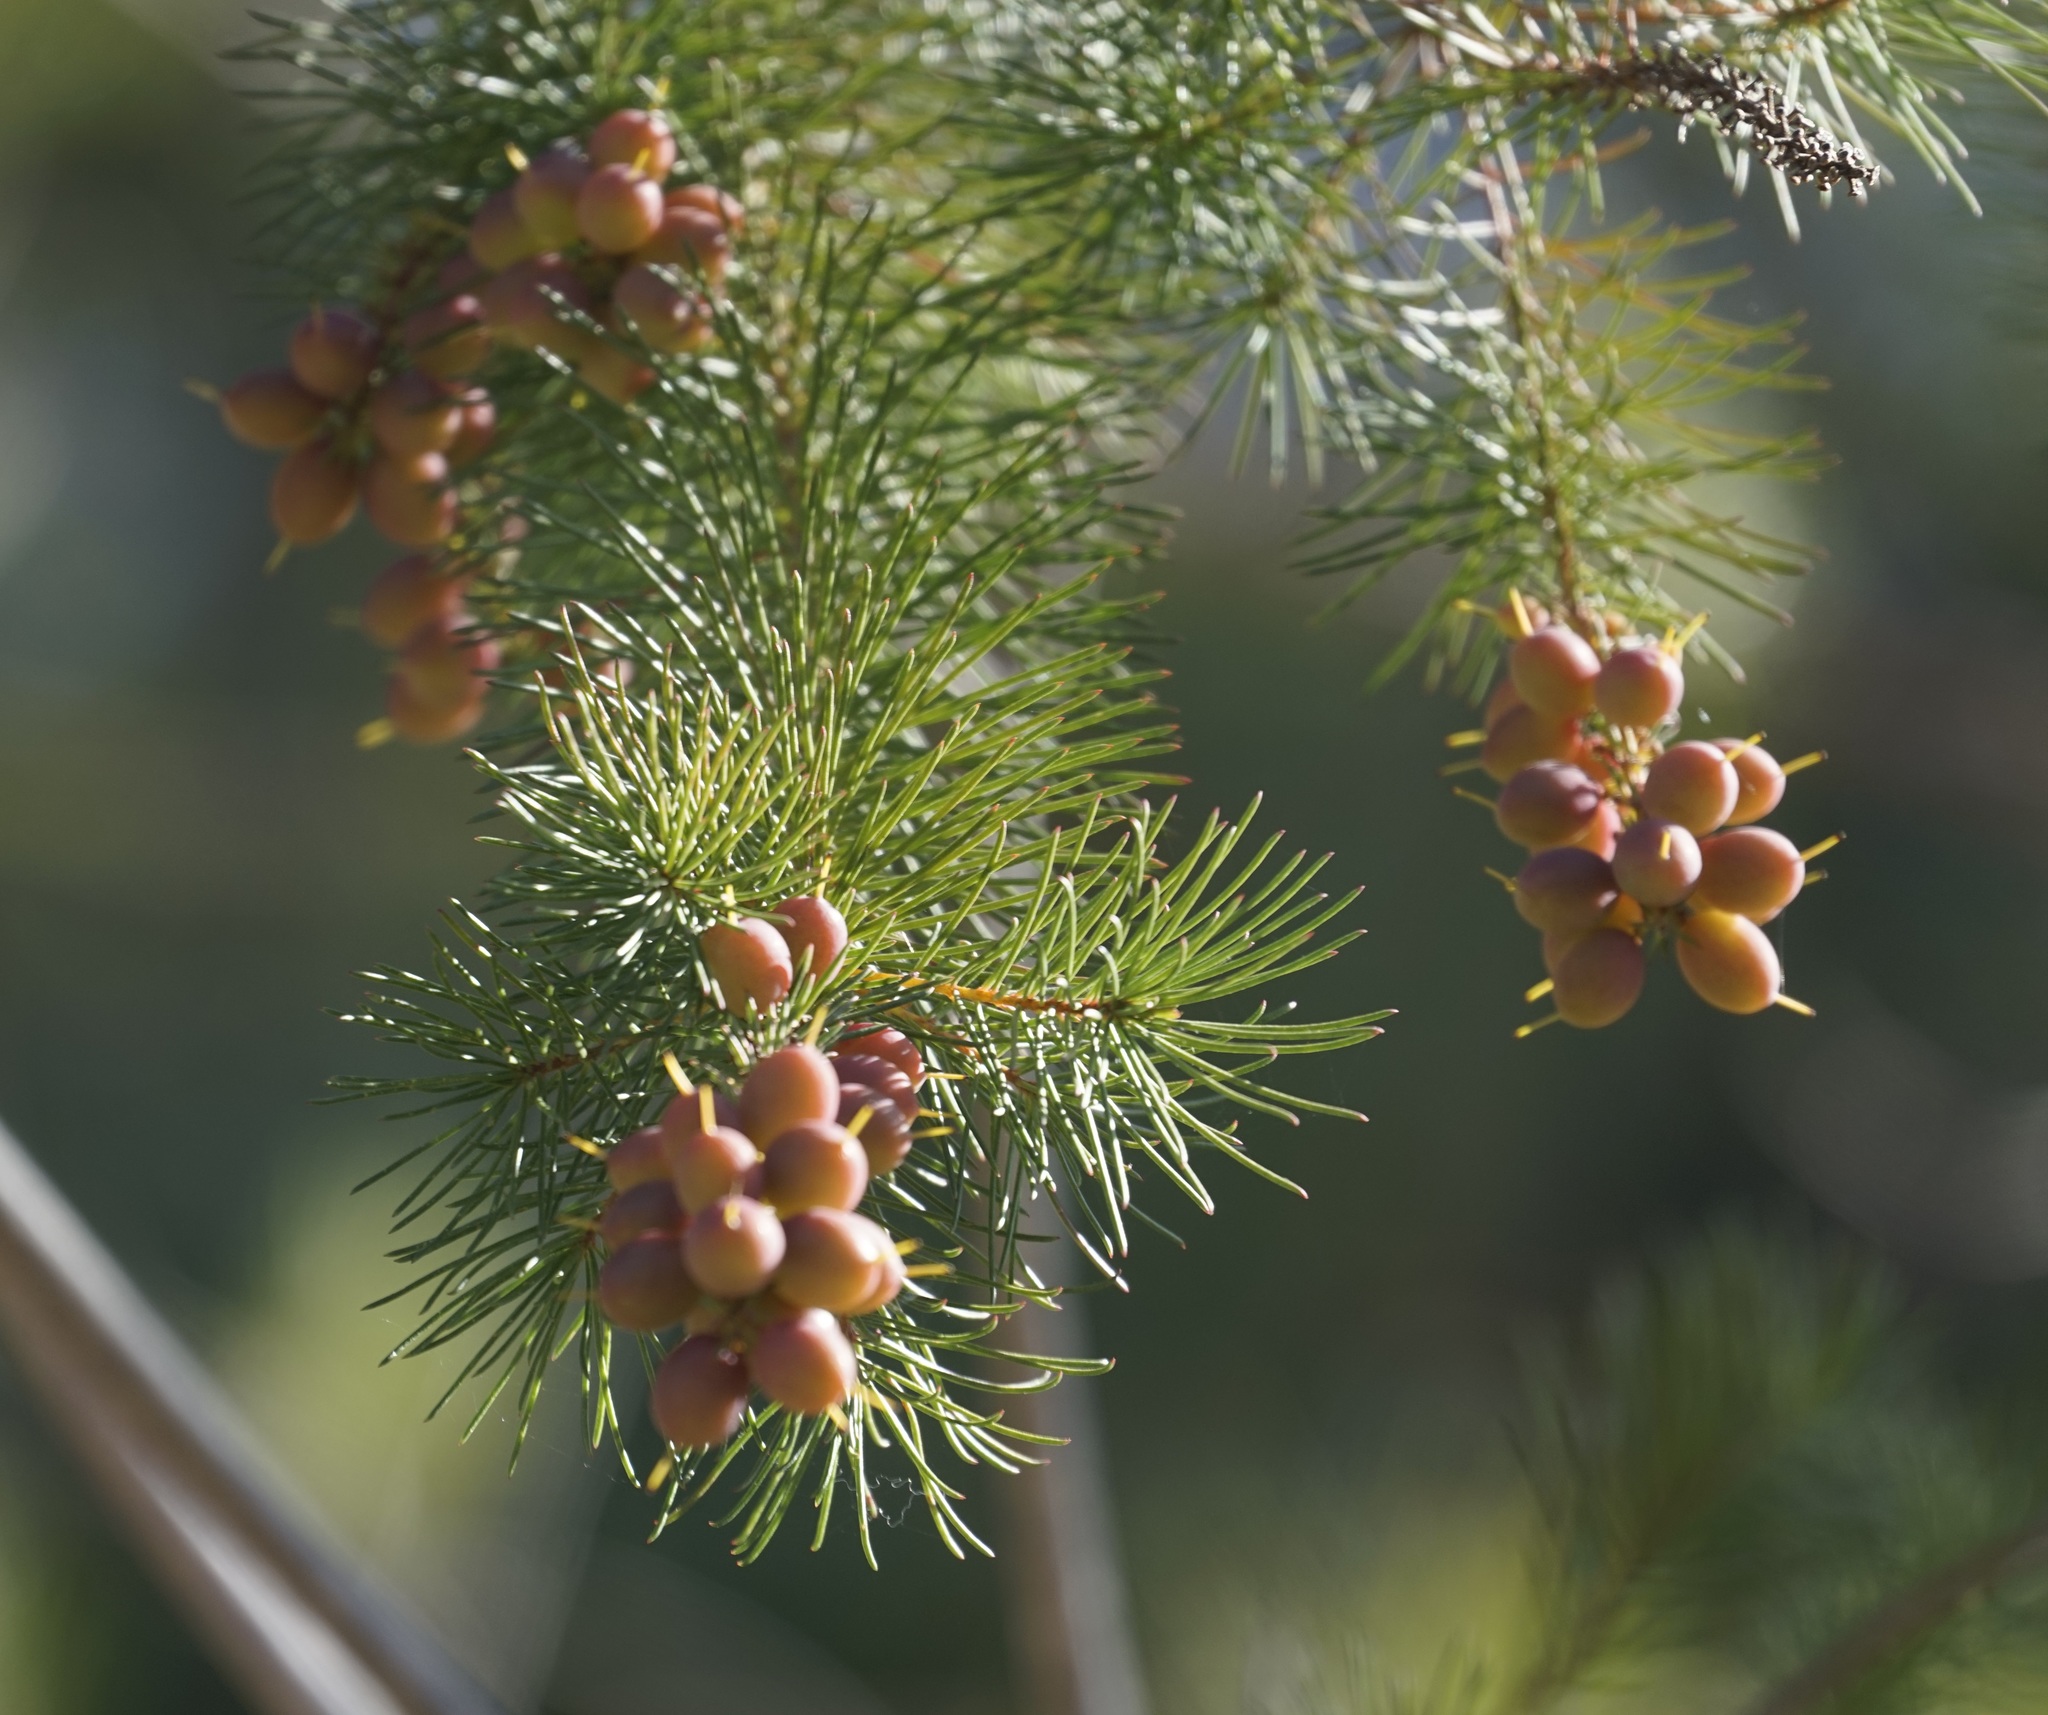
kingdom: Plantae
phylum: Tracheophyta
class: Magnoliopsida
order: Proteales
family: Proteaceae
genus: Persoonia
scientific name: Persoonia pinifolia
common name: Pine-leaf geebung
